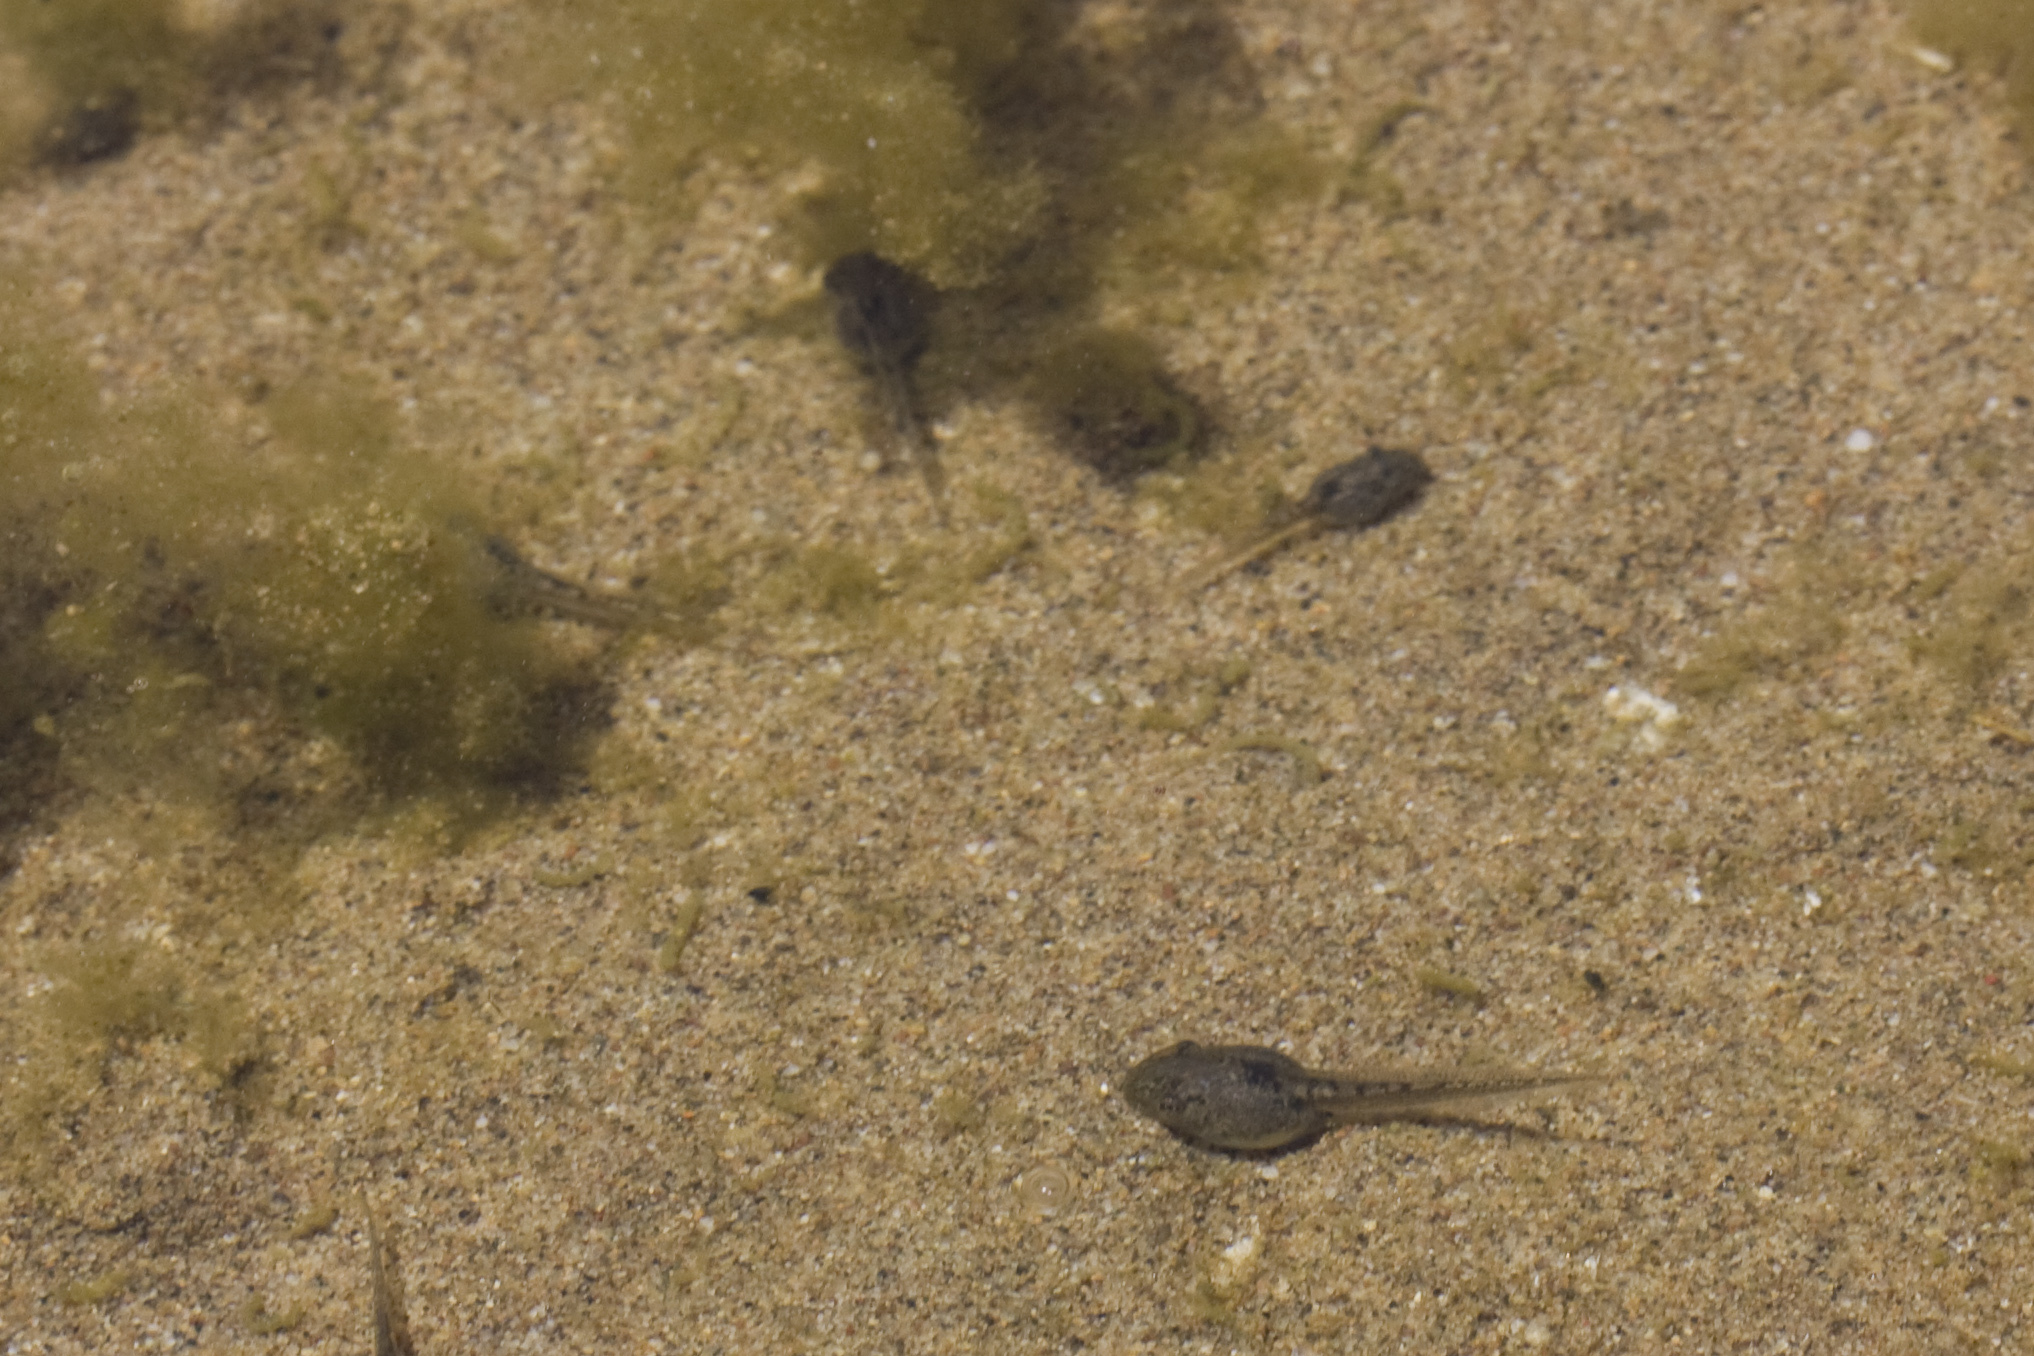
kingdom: Animalia
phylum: Chordata
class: Amphibia
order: Anura
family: Hylidae
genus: Pseudacris
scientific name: Pseudacris regilla
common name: Pacific chorus frog
